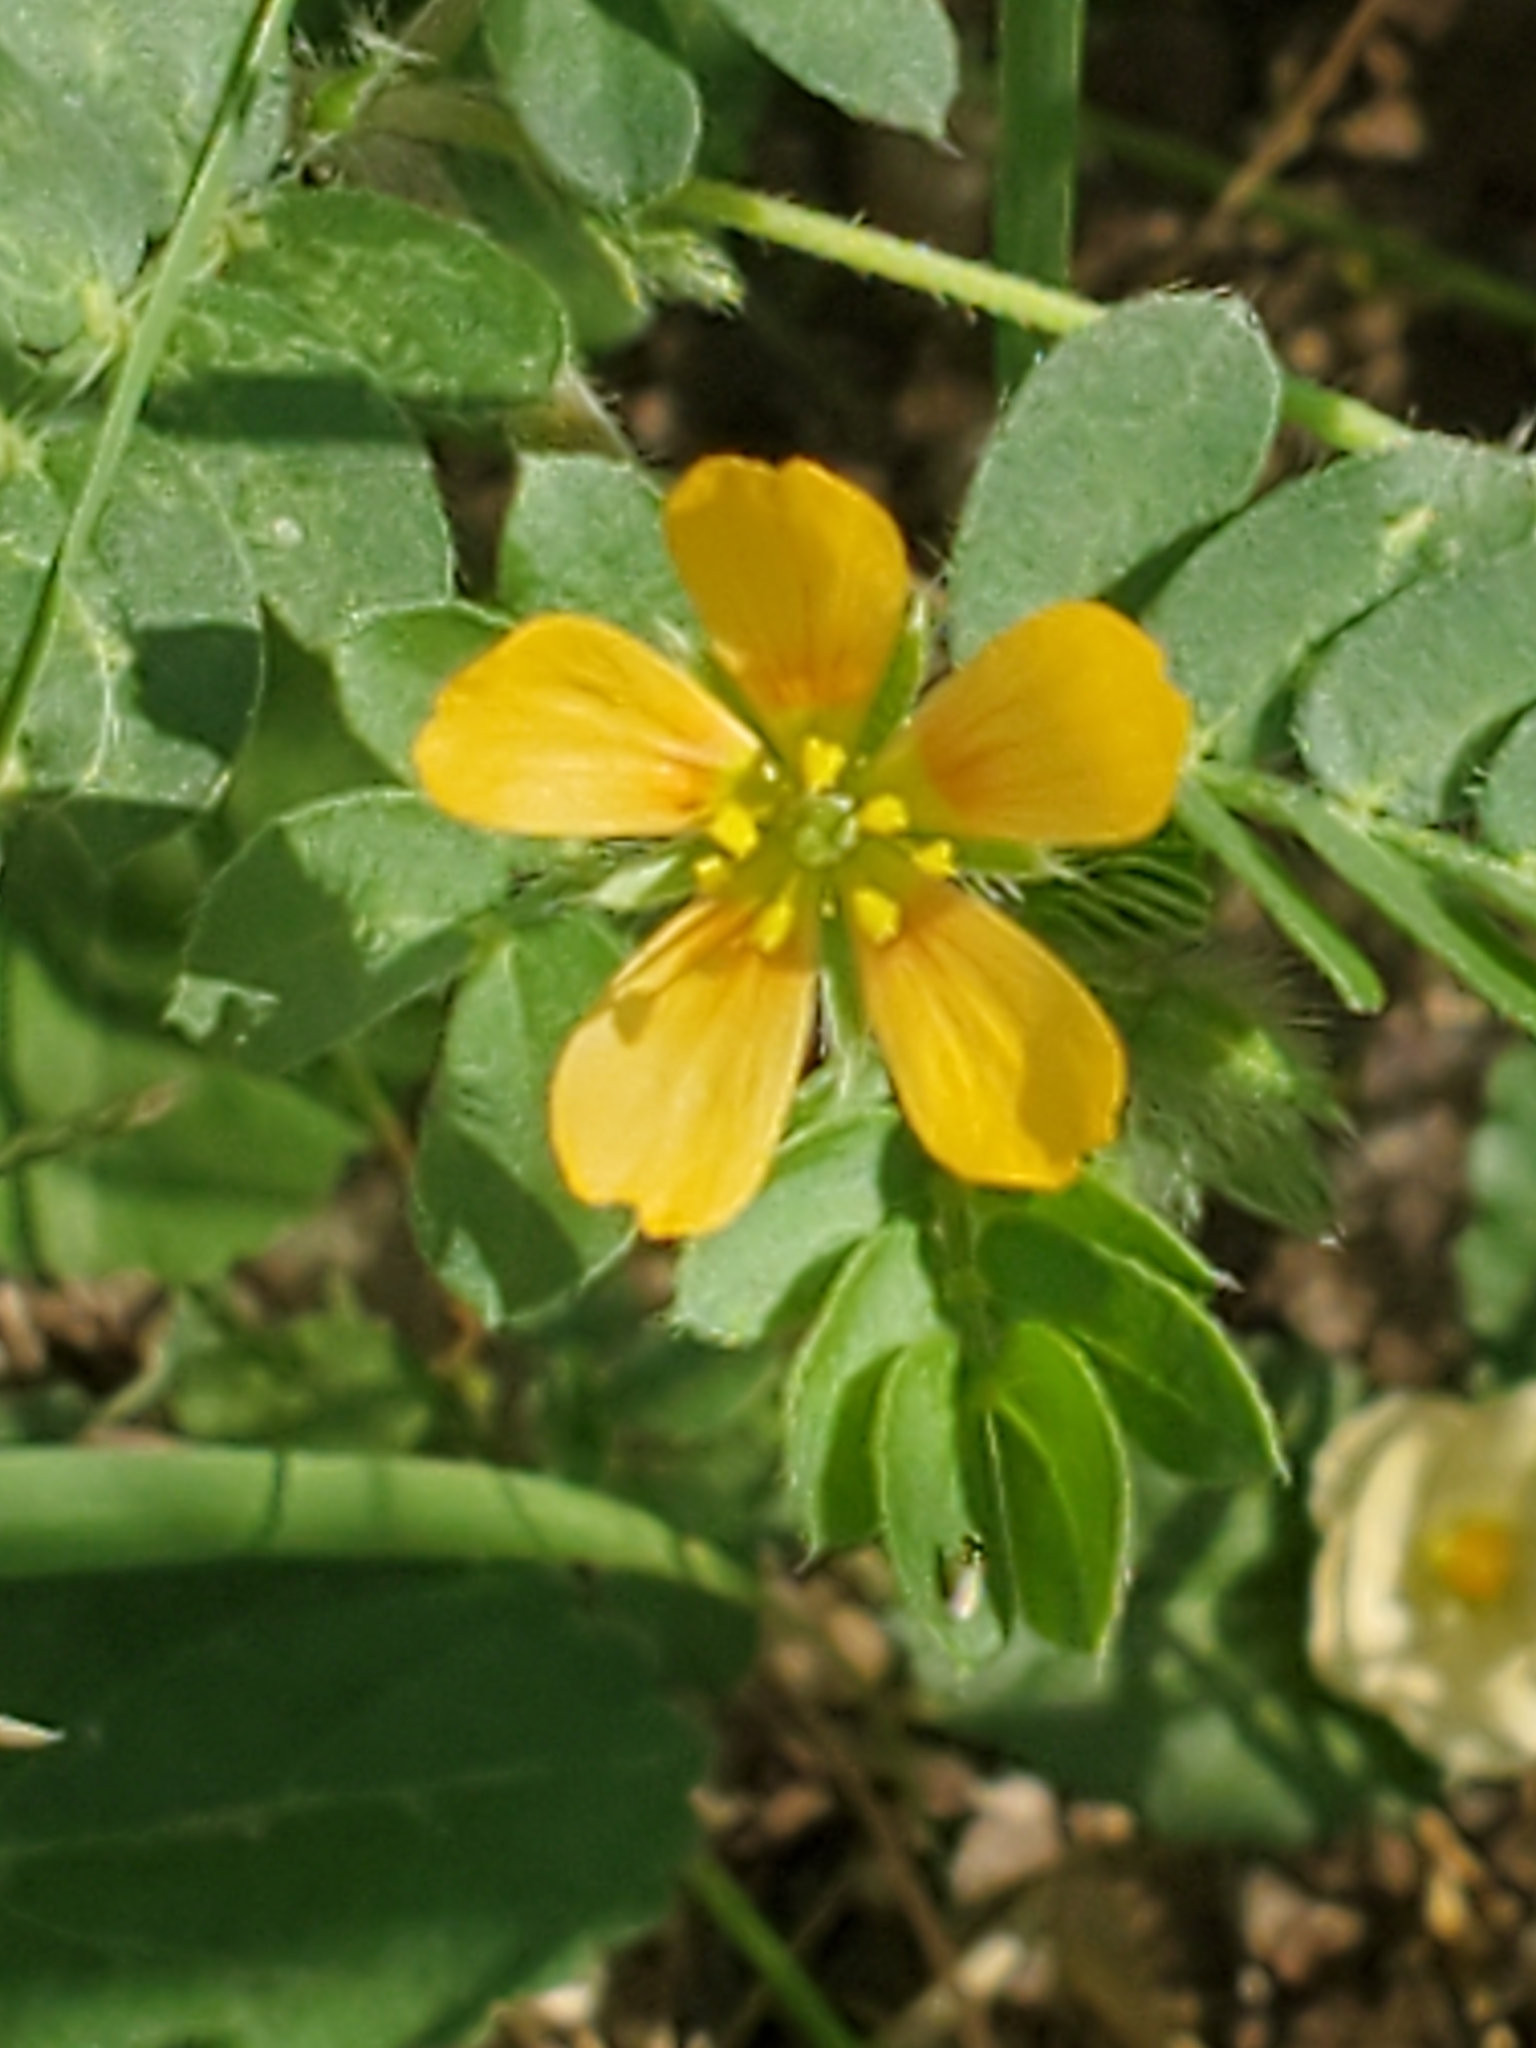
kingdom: Plantae
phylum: Tracheophyta
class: Magnoliopsida
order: Zygophyllales
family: Zygophyllaceae
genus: Tribulus
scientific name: Tribulus terrestris
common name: Puncturevine
